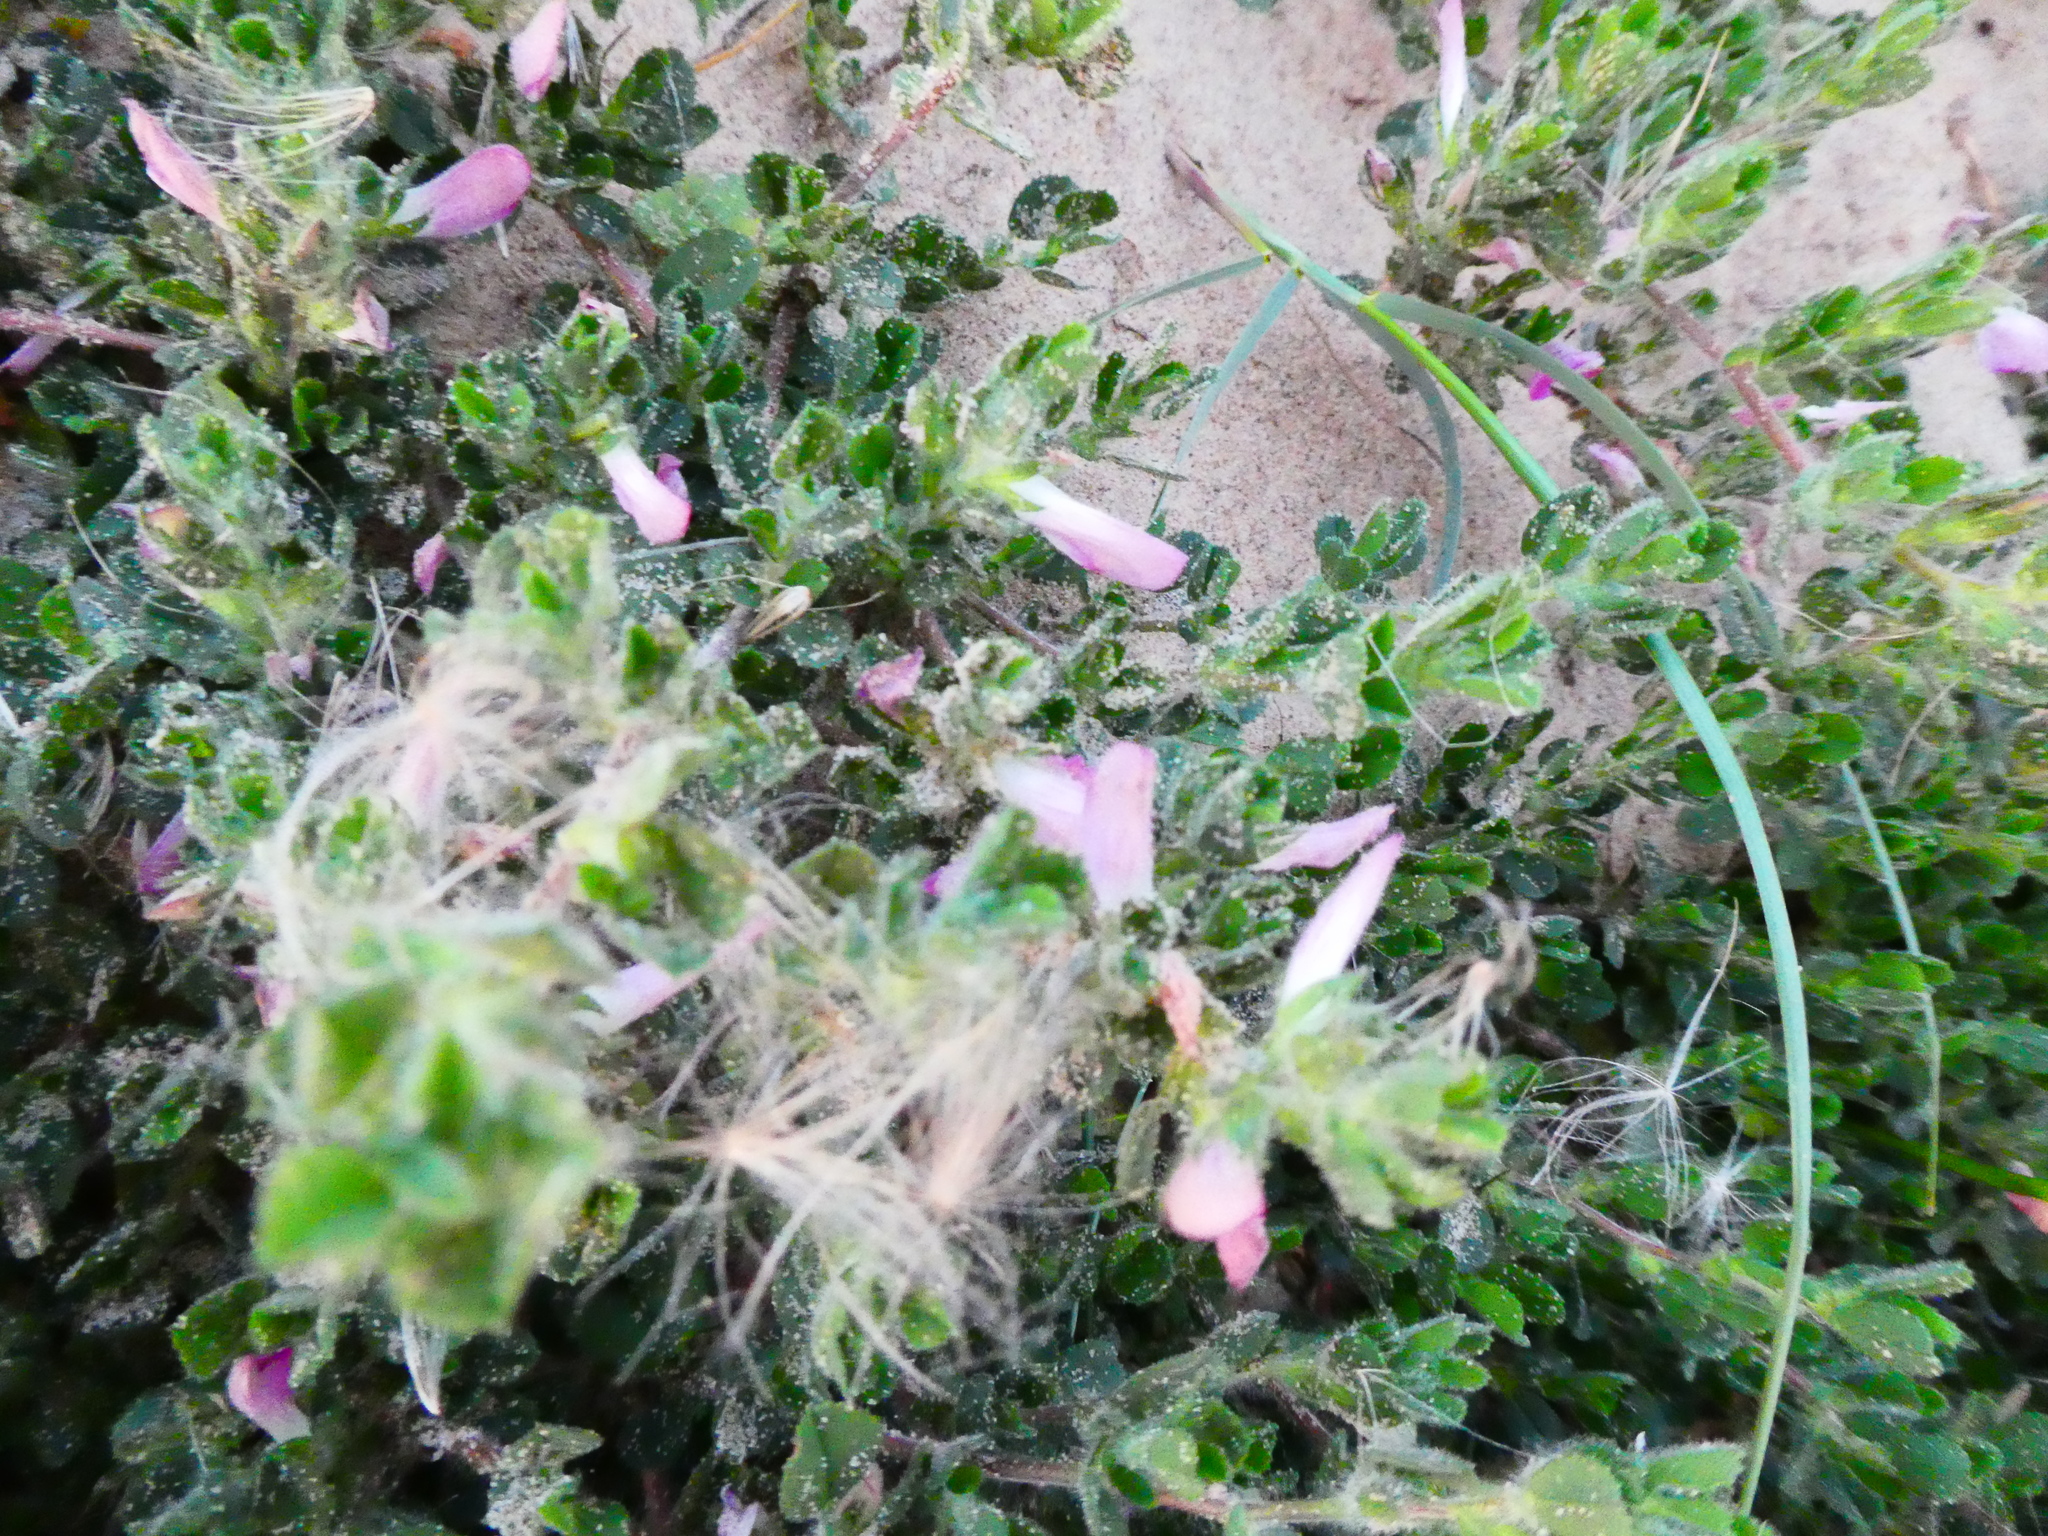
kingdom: Plantae
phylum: Tracheophyta
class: Magnoliopsida
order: Fabales
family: Fabaceae
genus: Ononis
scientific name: Ononis spinosa
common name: Spiny restharrow
